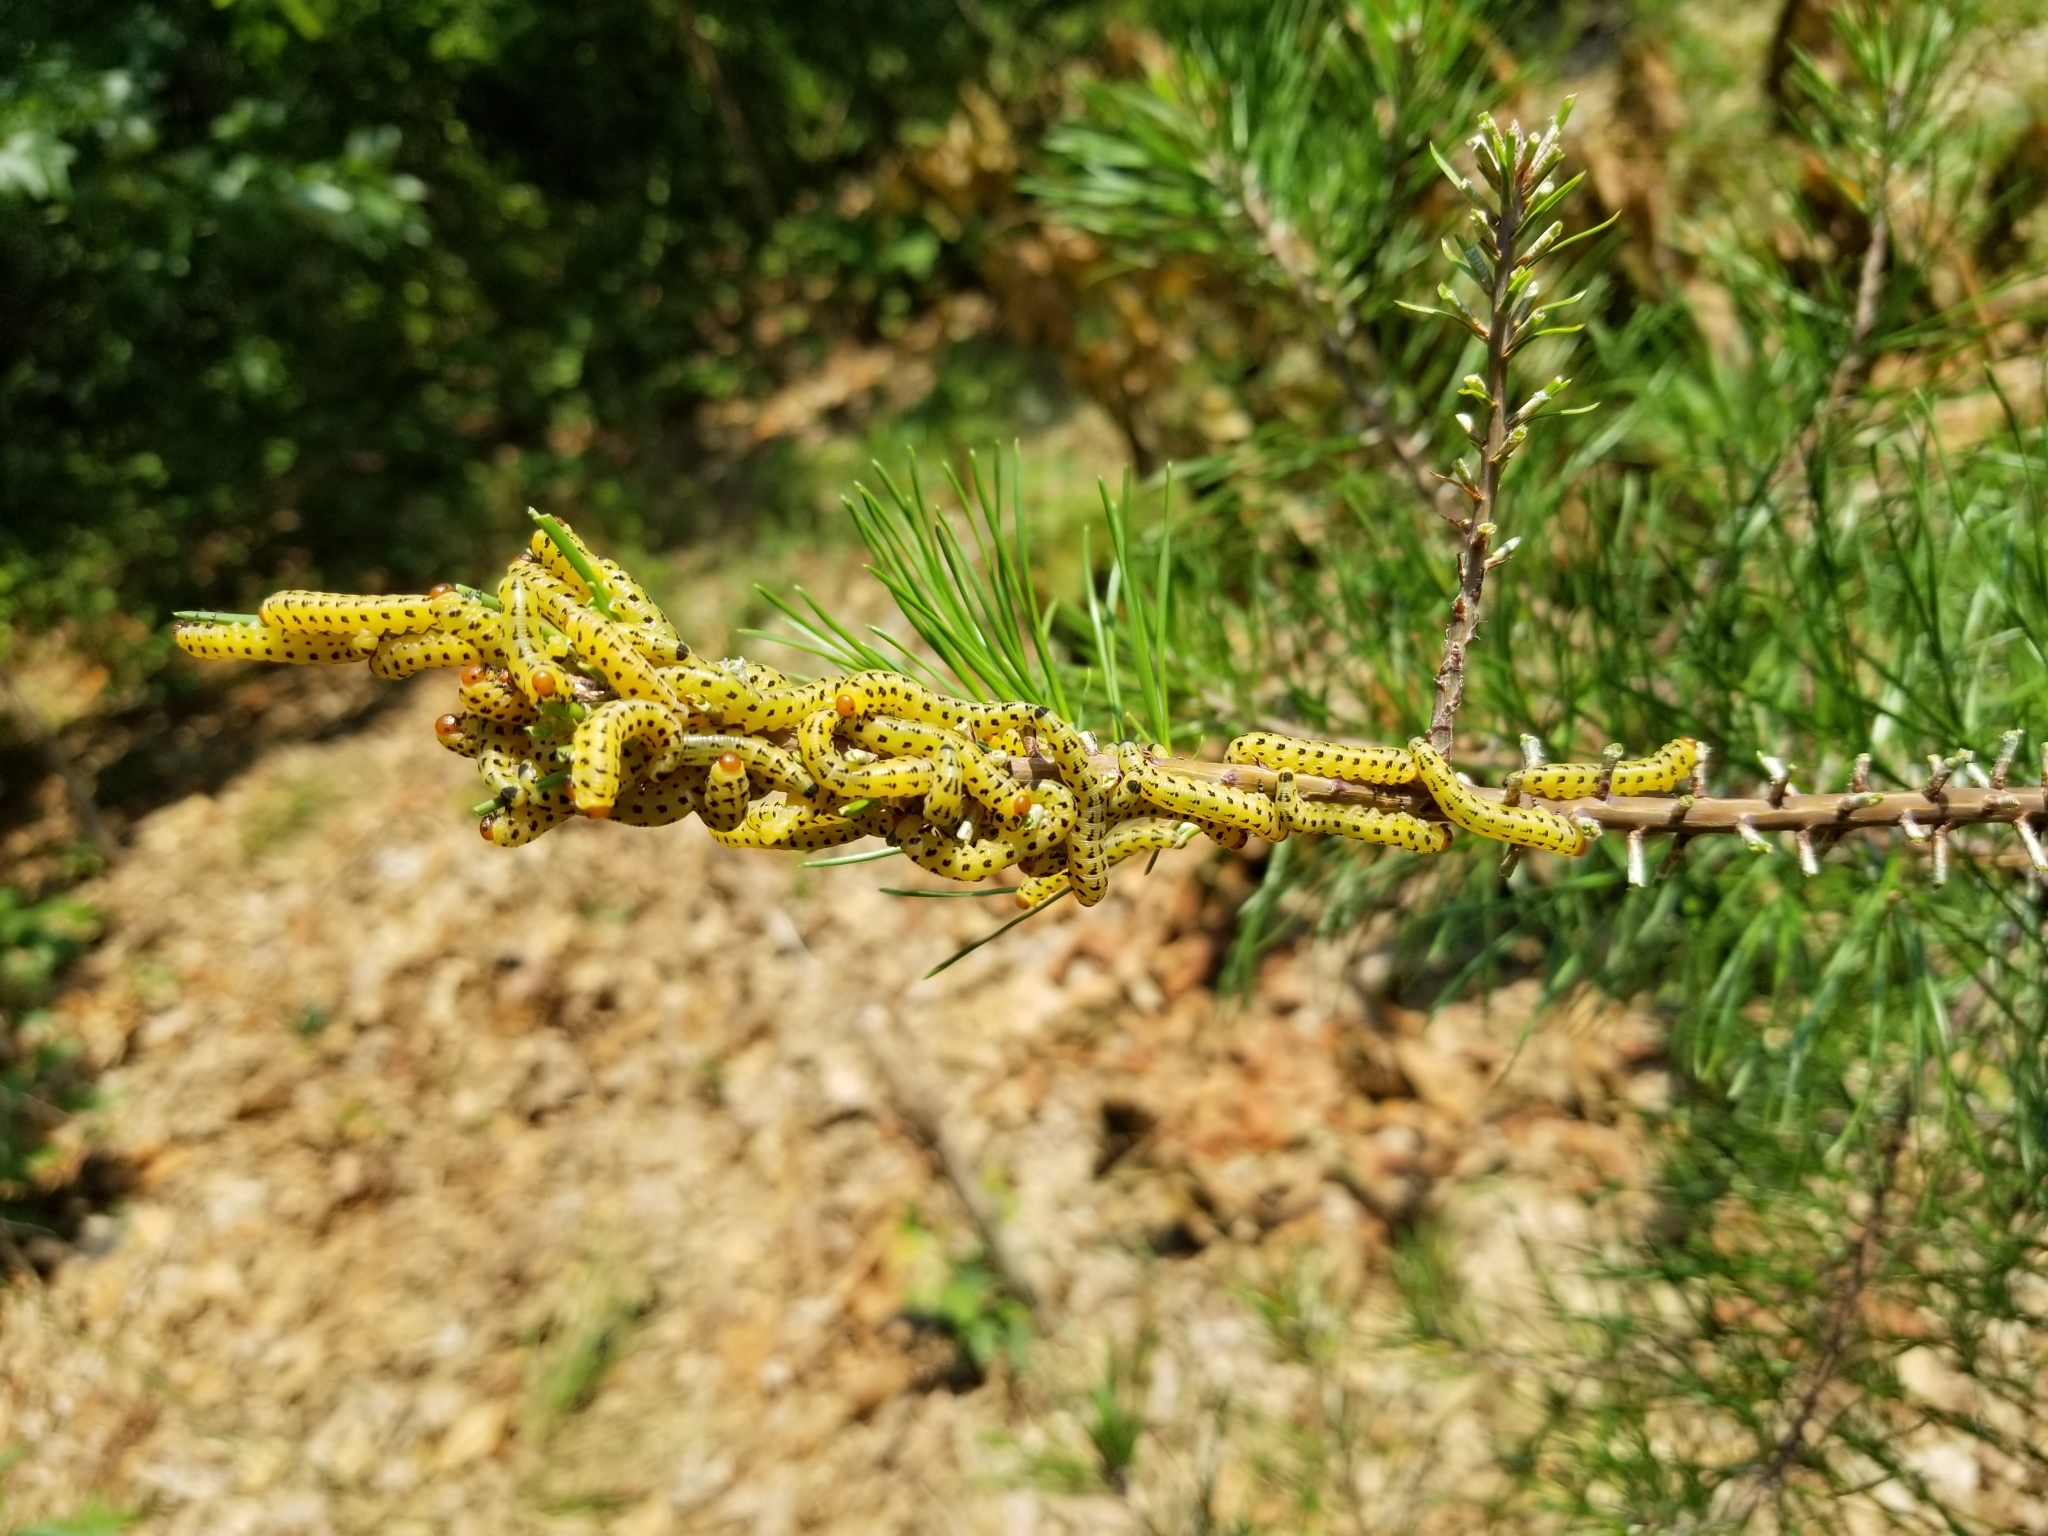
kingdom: Animalia
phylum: Arthropoda
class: Insecta
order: Hymenoptera
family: Diprionidae
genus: Neodiprion
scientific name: Neodiprion lecontei
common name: Redheaded pine sawfly
